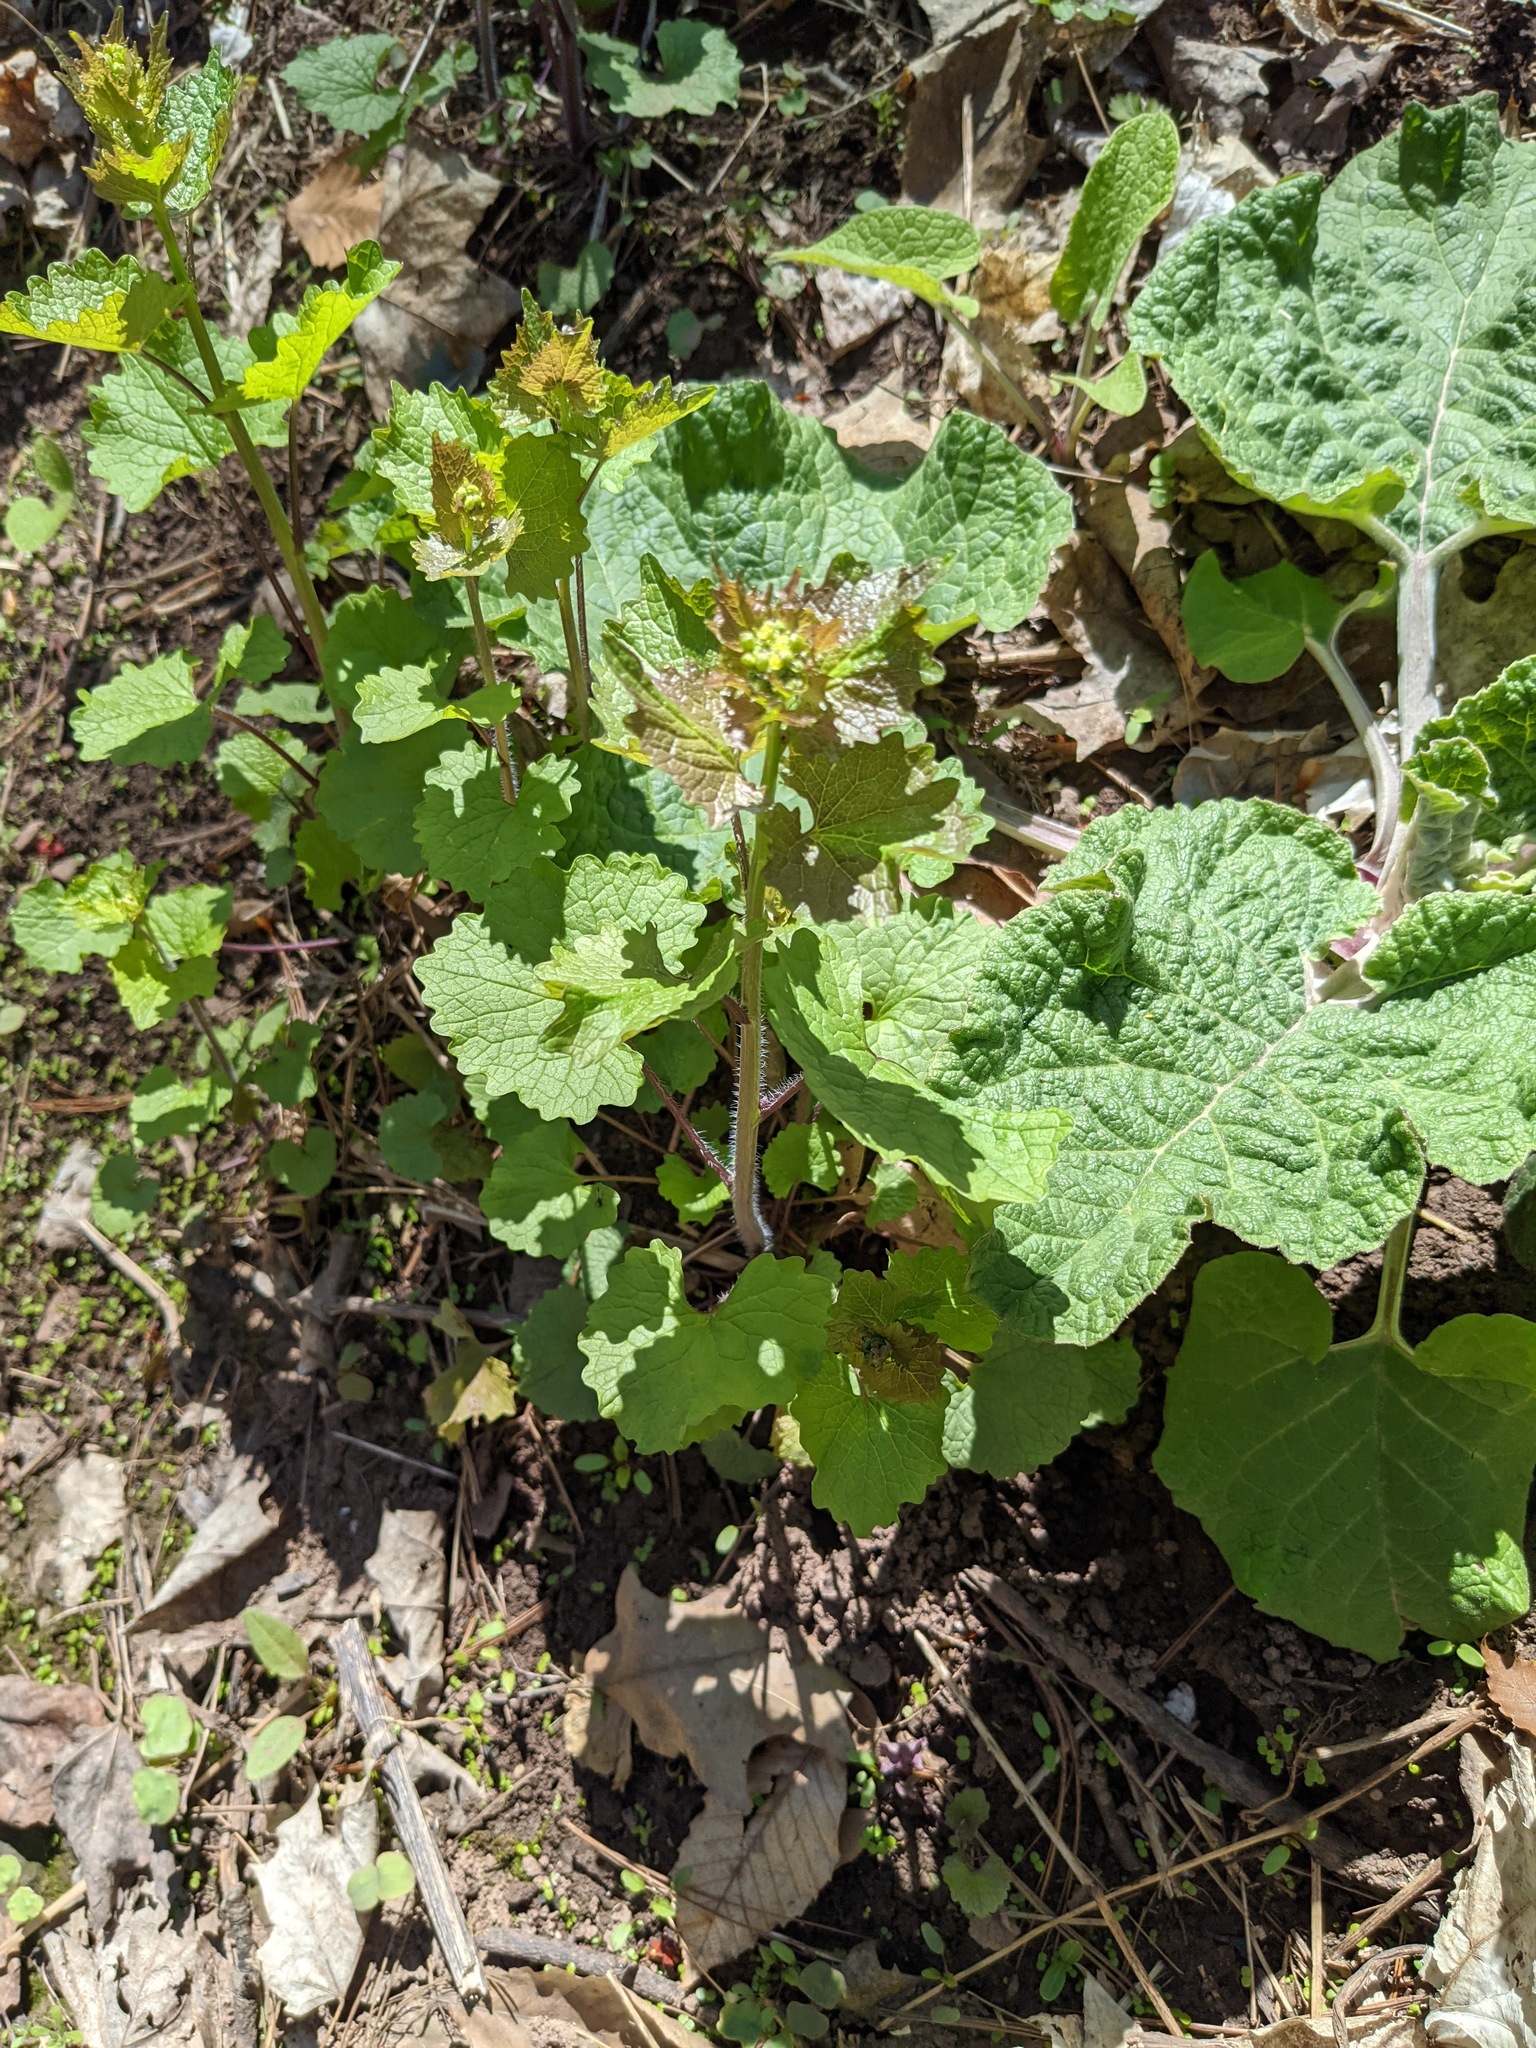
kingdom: Plantae
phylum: Tracheophyta
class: Magnoliopsida
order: Brassicales
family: Brassicaceae
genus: Alliaria
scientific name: Alliaria petiolata
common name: Garlic mustard
